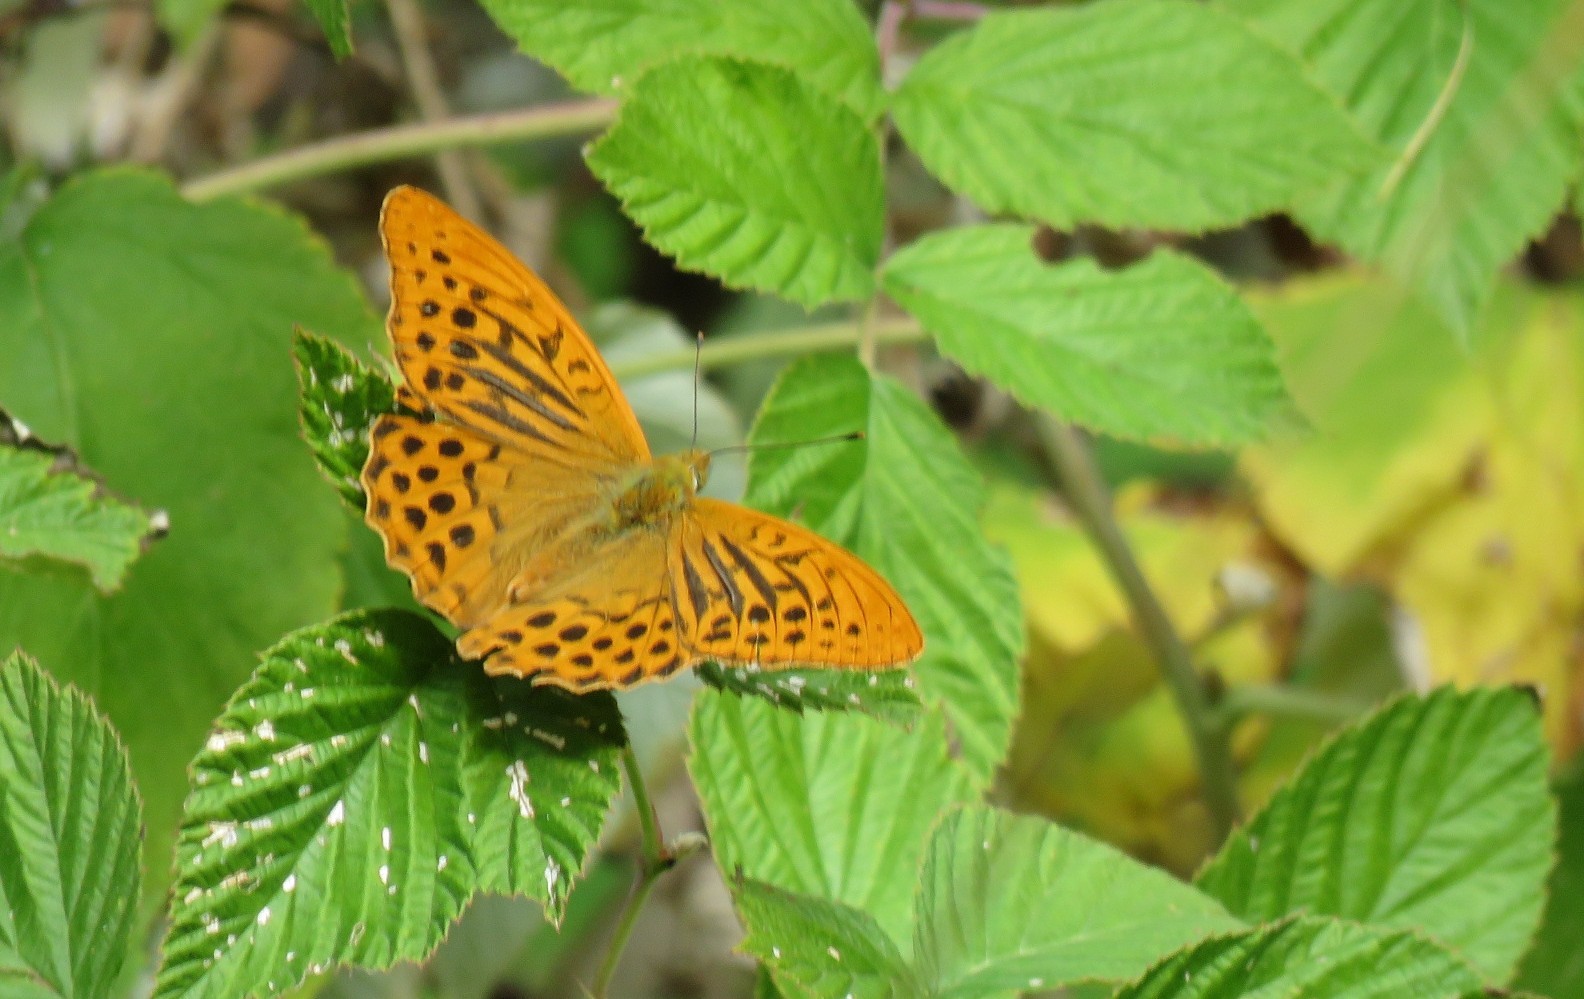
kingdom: Animalia
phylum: Arthropoda
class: Insecta
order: Lepidoptera
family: Nymphalidae
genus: Argynnis
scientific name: Argynnis paphia
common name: Silver-washed fritillary
